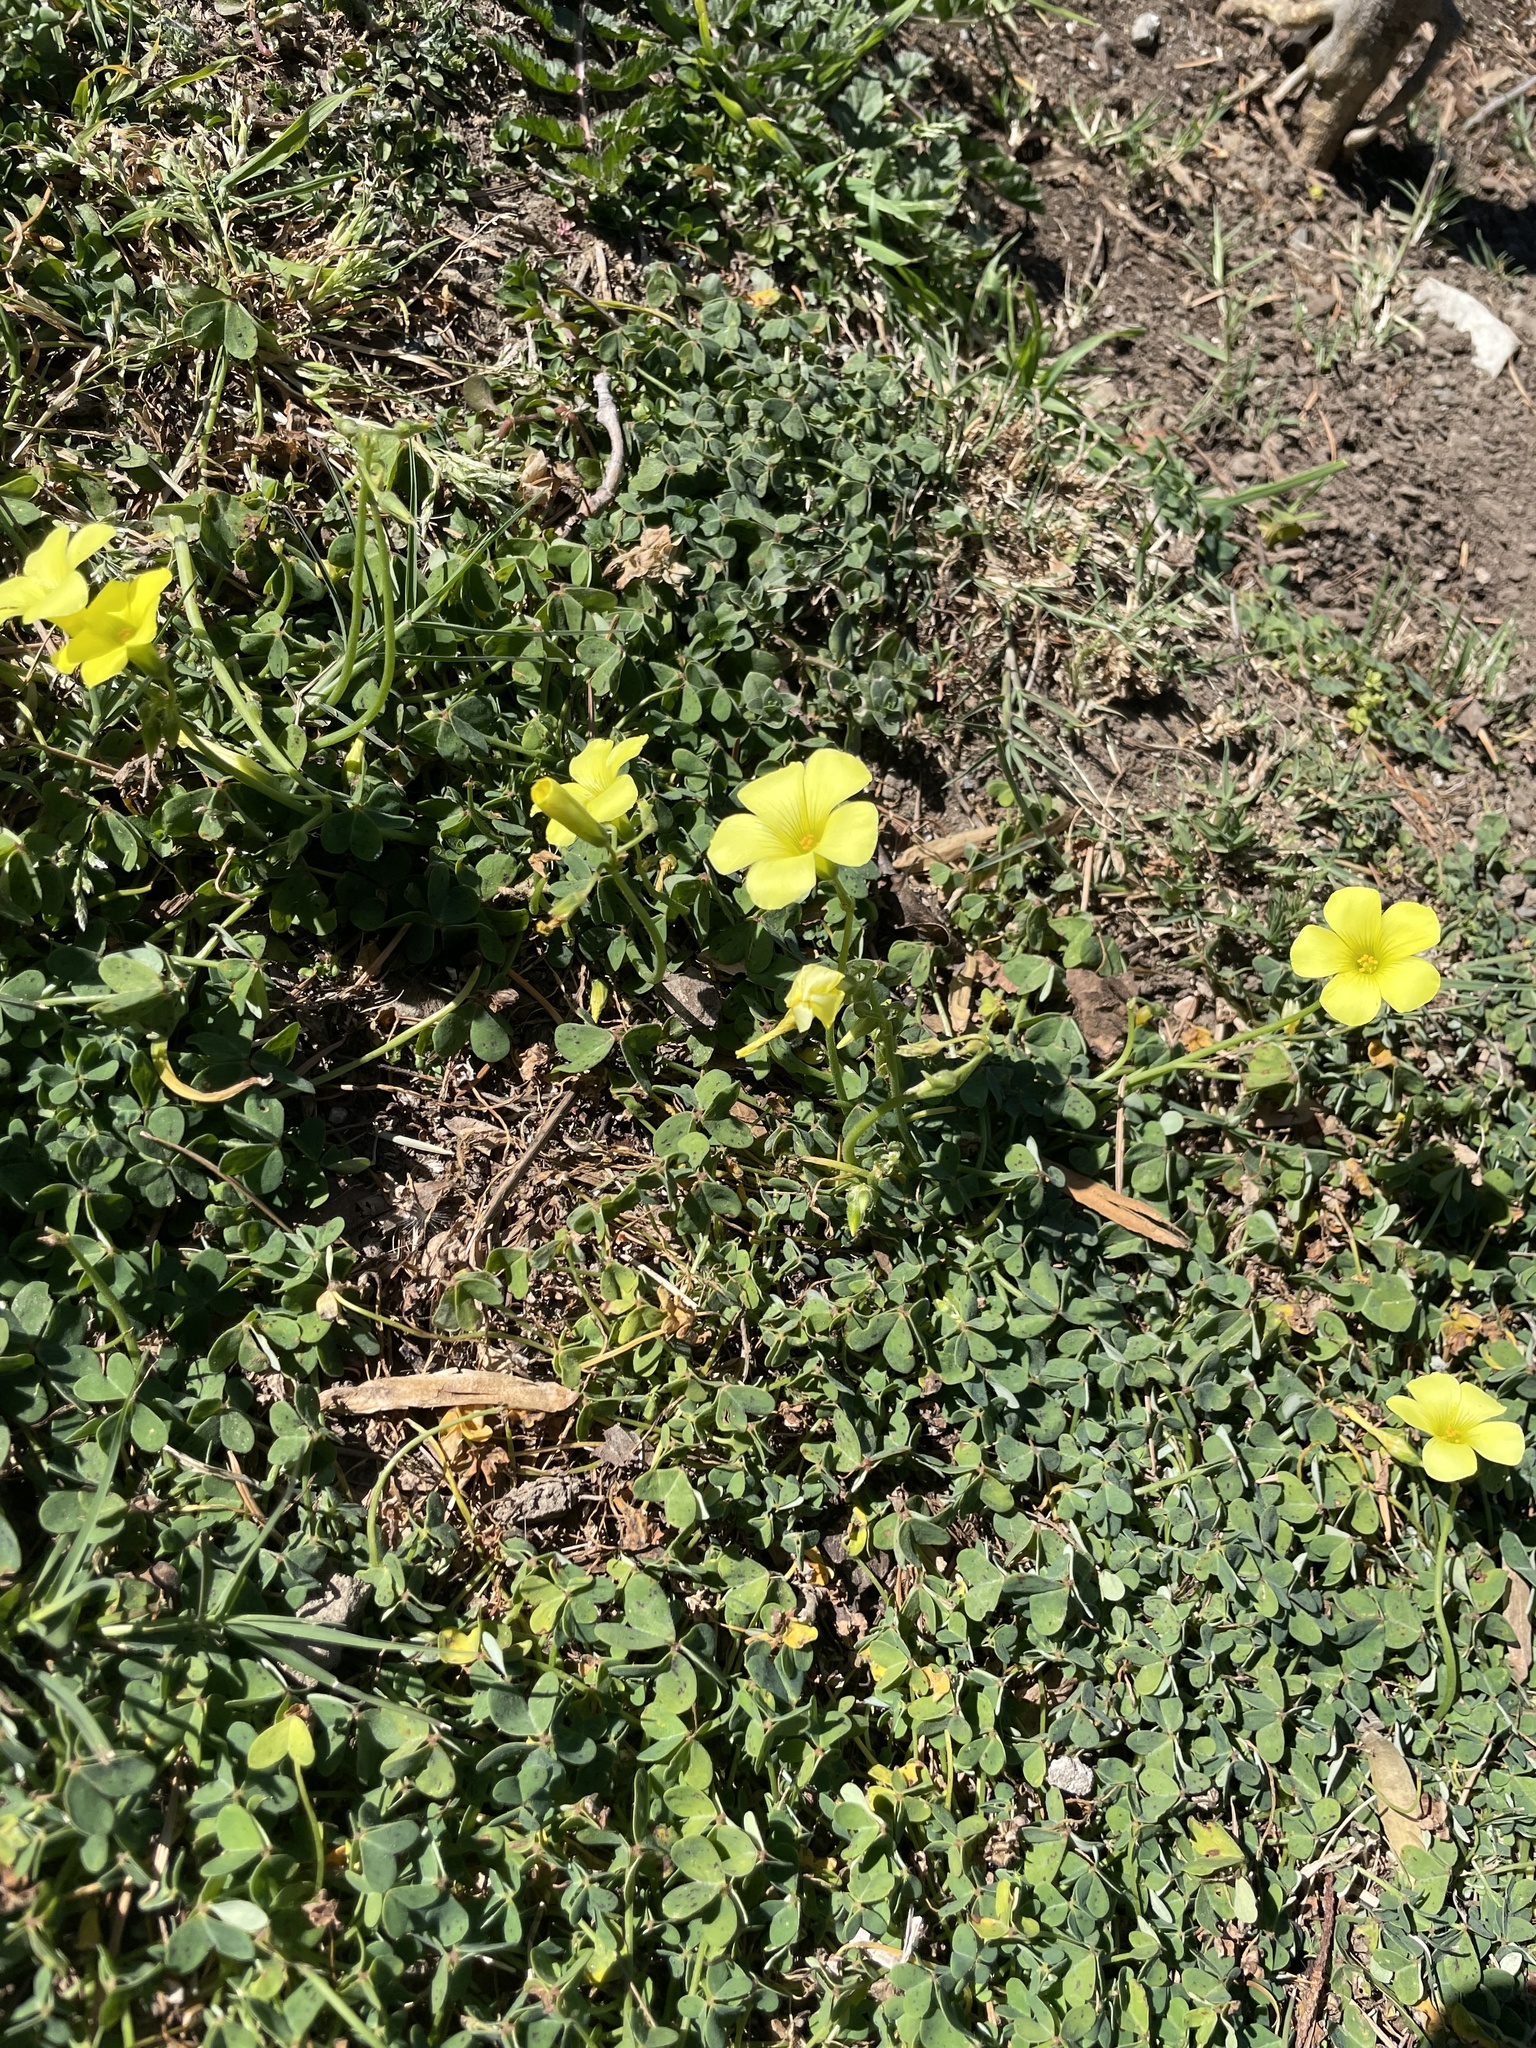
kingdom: Plantae
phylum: Tracheophyta
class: Magnoliopsida
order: Oxalidales
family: Oxalidaceae
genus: Oxalis
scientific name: Oxalis pes-caprae
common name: Bermuda-buttercup
